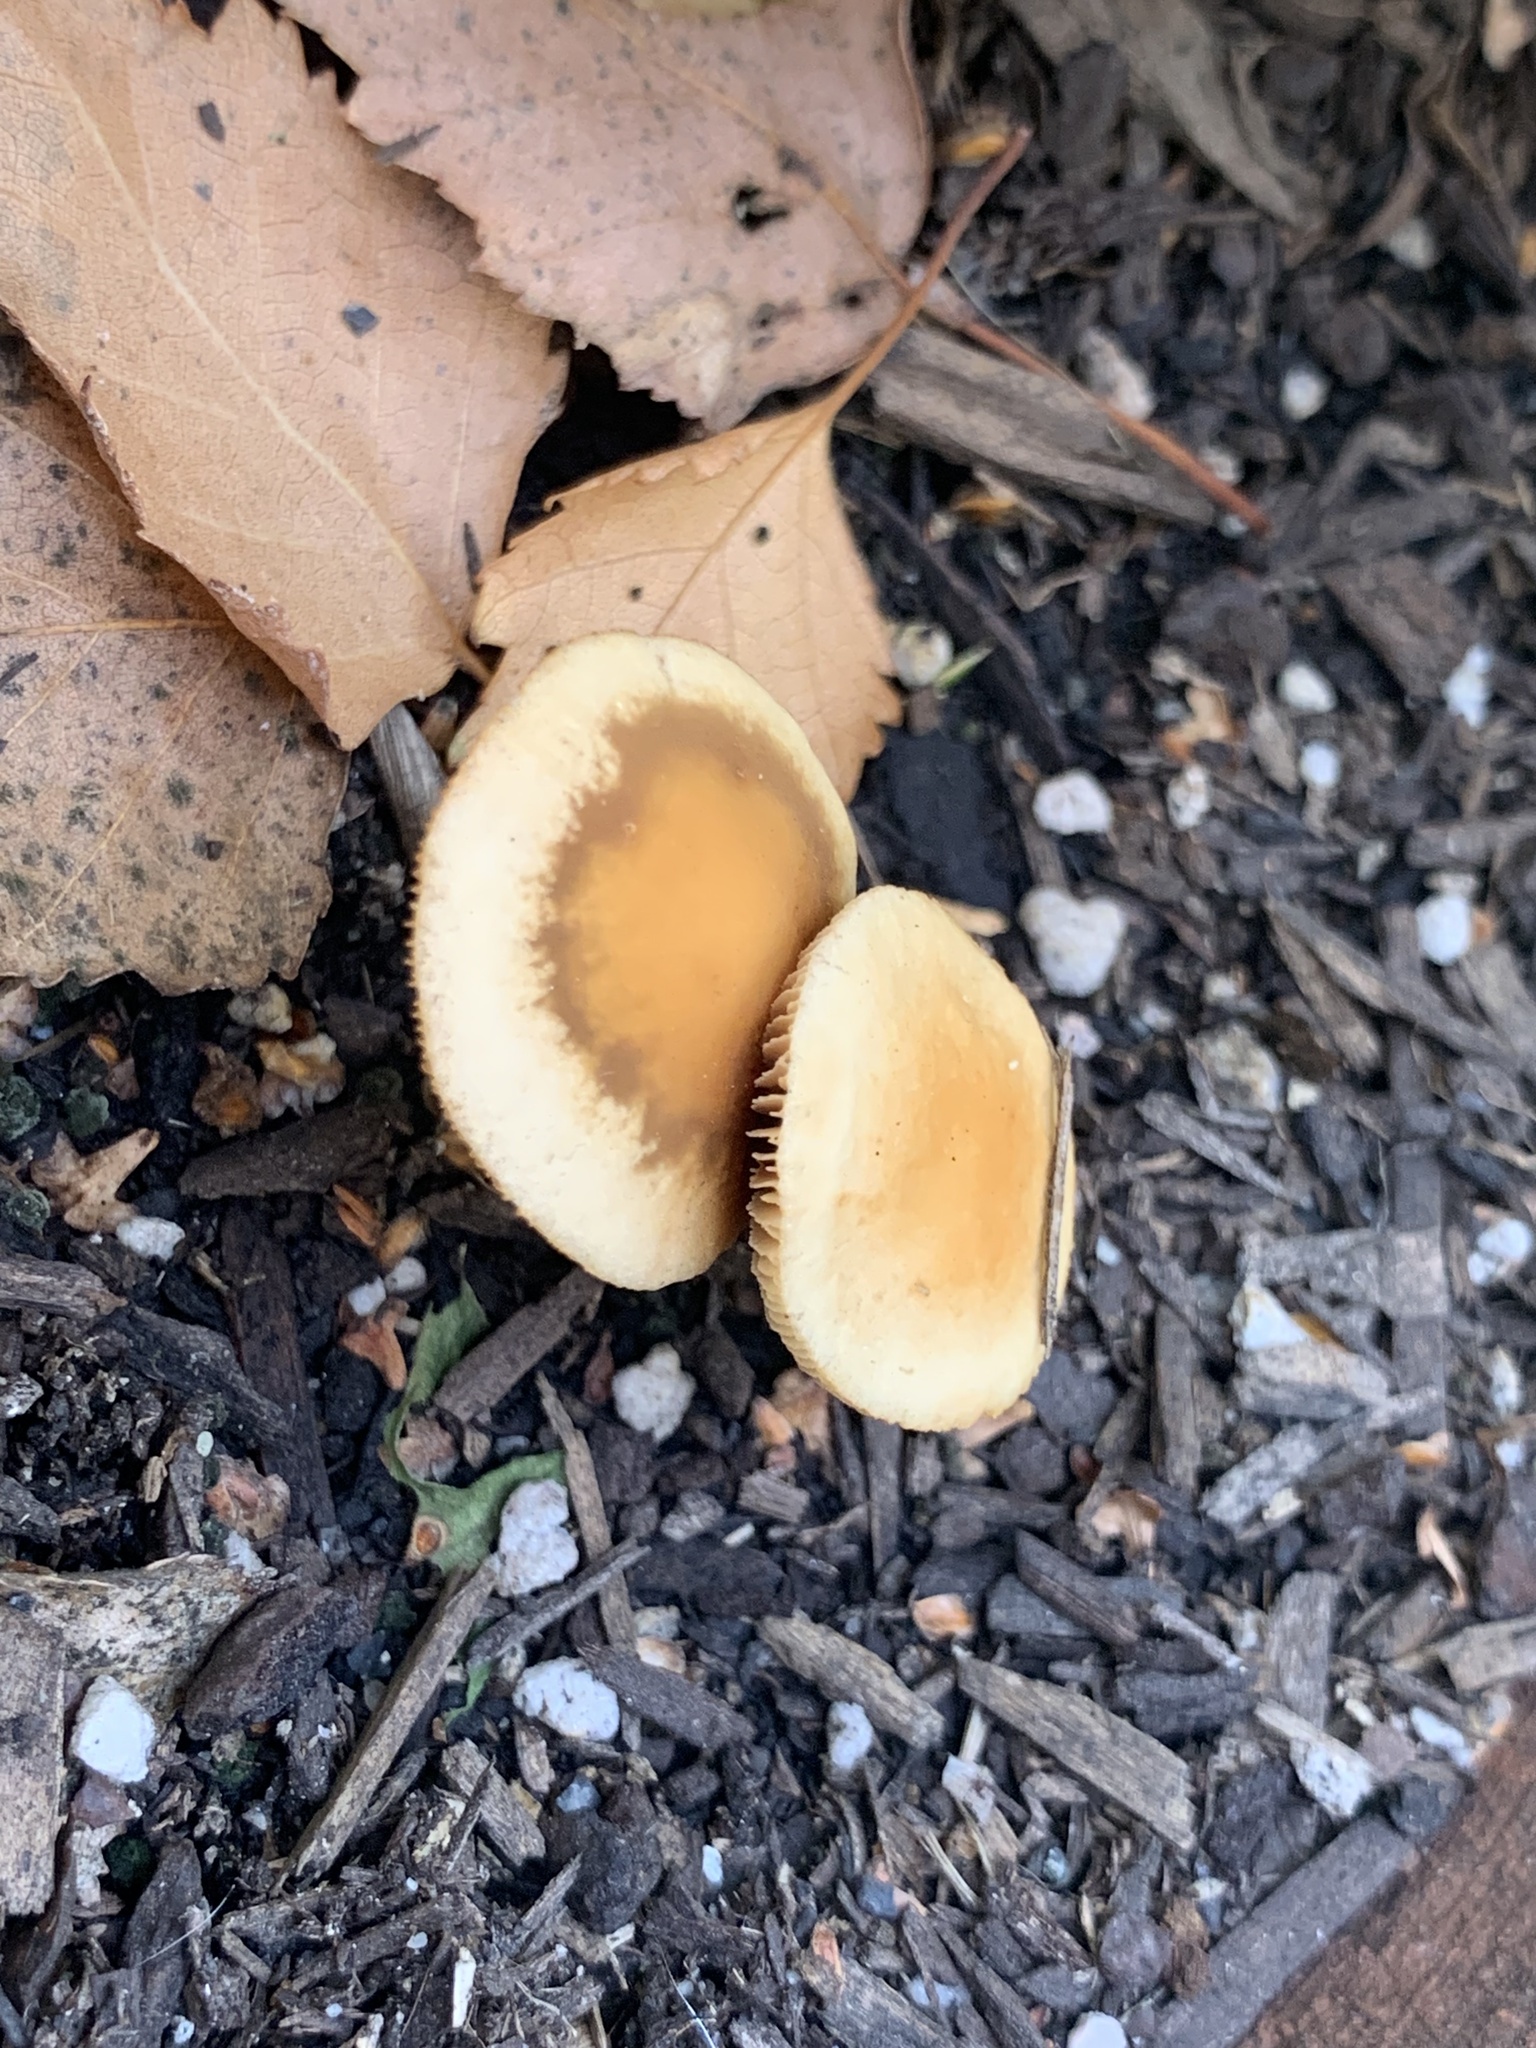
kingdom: Fungi
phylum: Basidiomycota
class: Agaricomycetes
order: Agaricales
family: Bolbitiaceae
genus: Conocybe
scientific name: Conocybe rugosa
